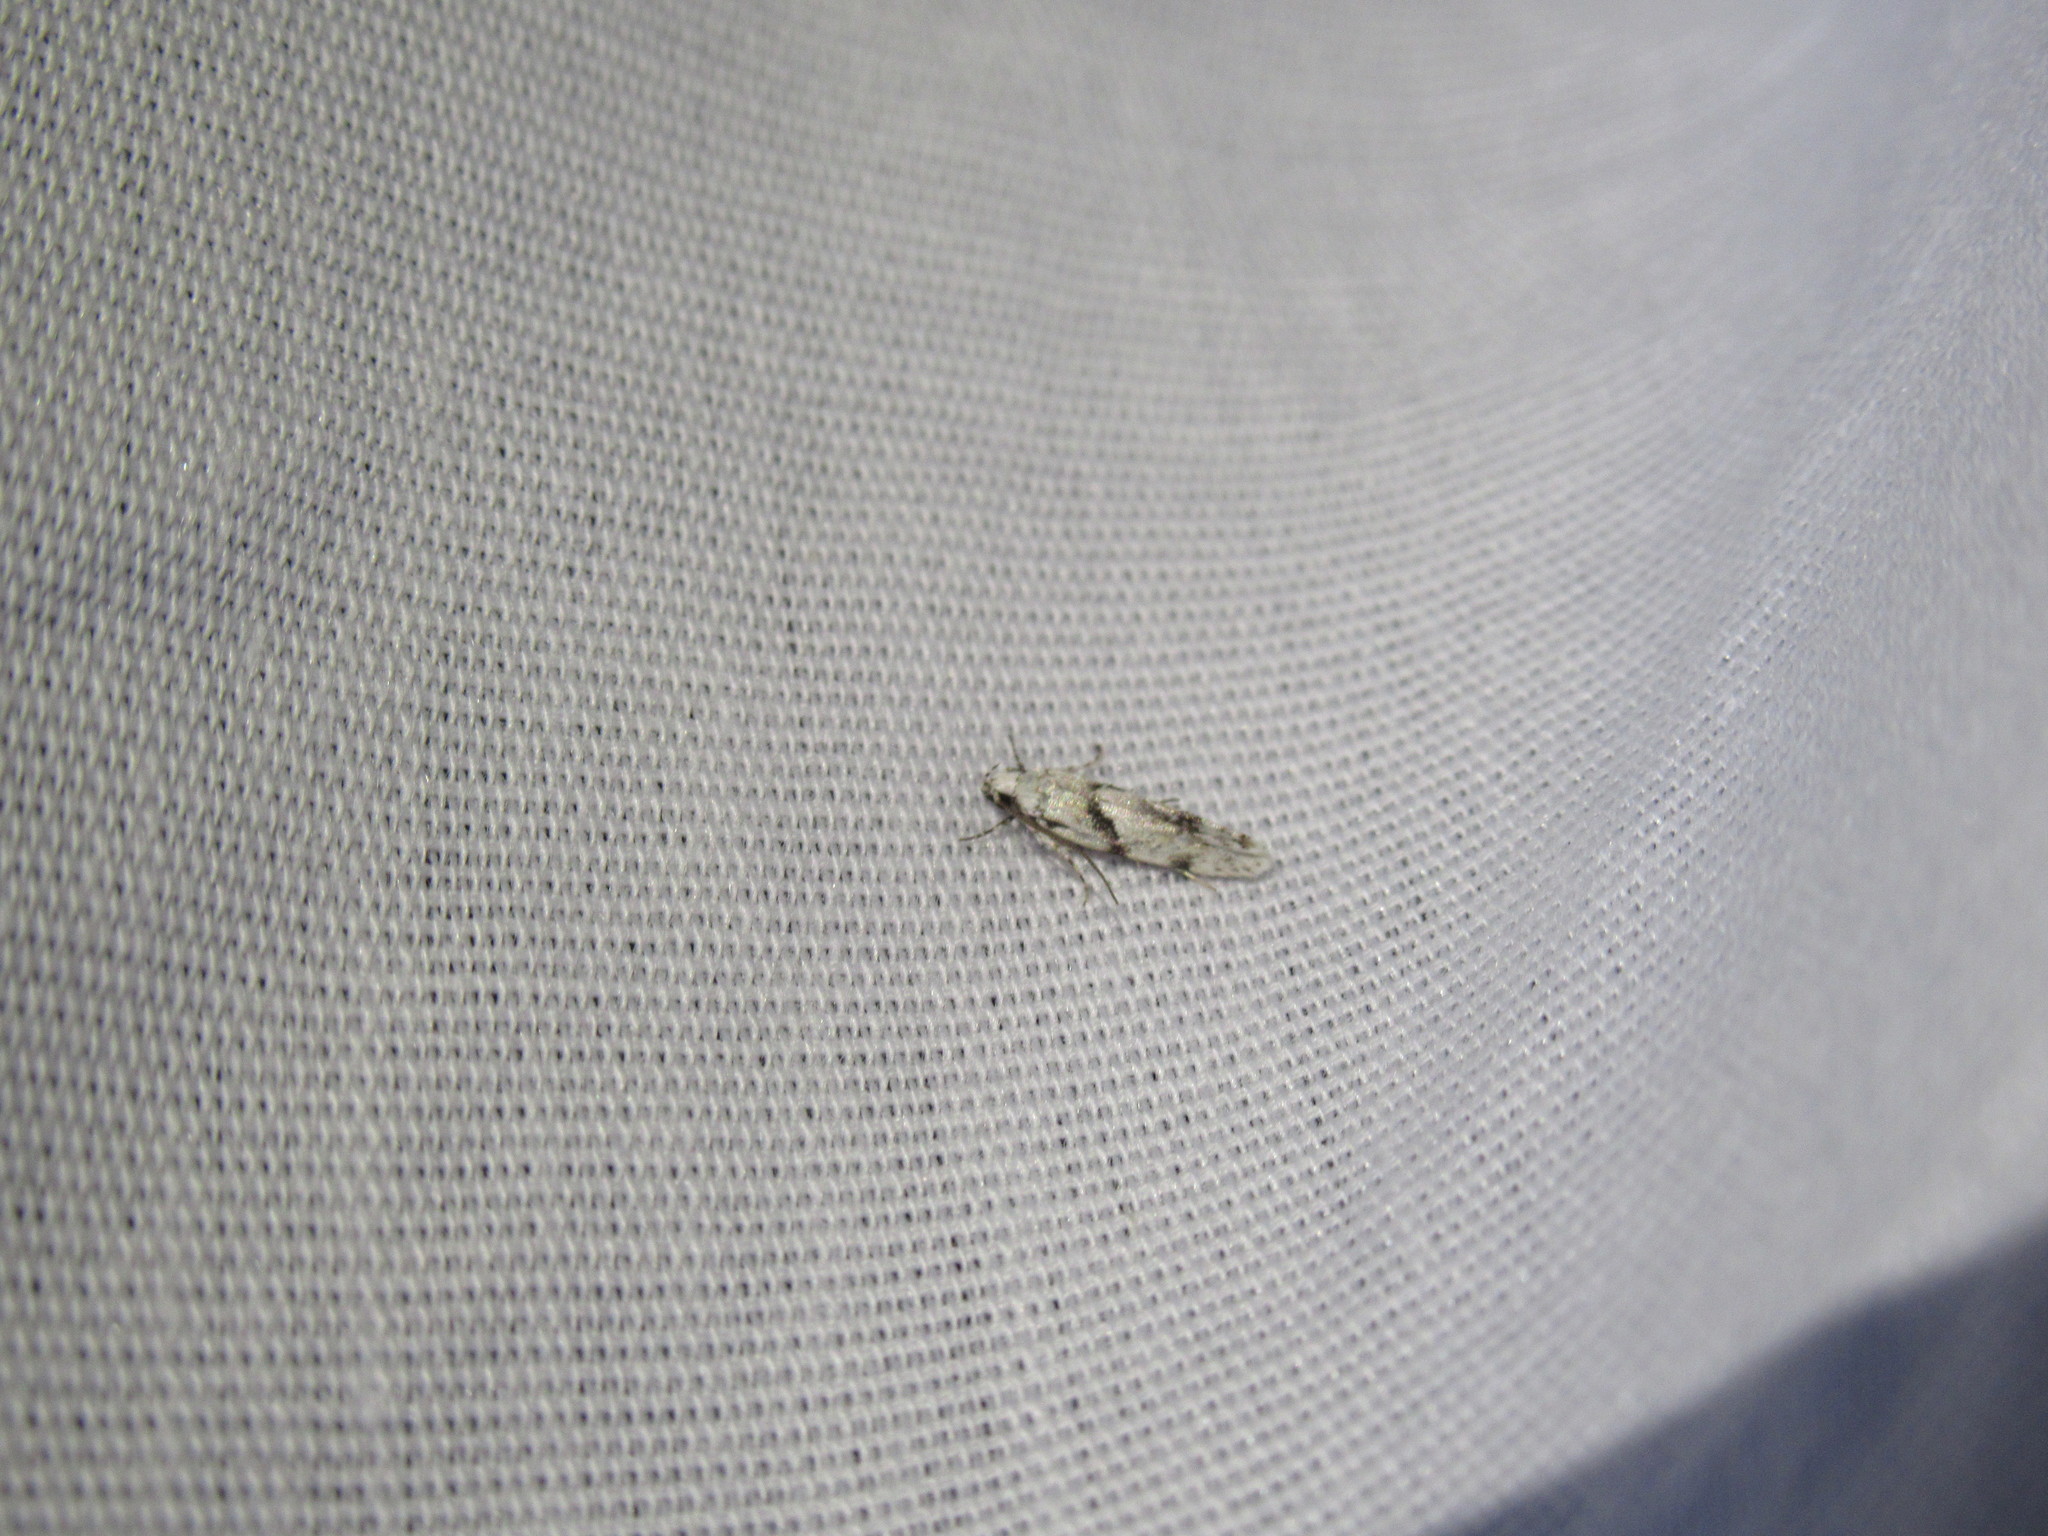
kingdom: Animalia
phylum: Arthropoda
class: Insecta
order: Lepidoptera
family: Gelechiidae
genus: Arogalea
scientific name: Arogalea cristifasciella
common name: White stripe-backed moth
